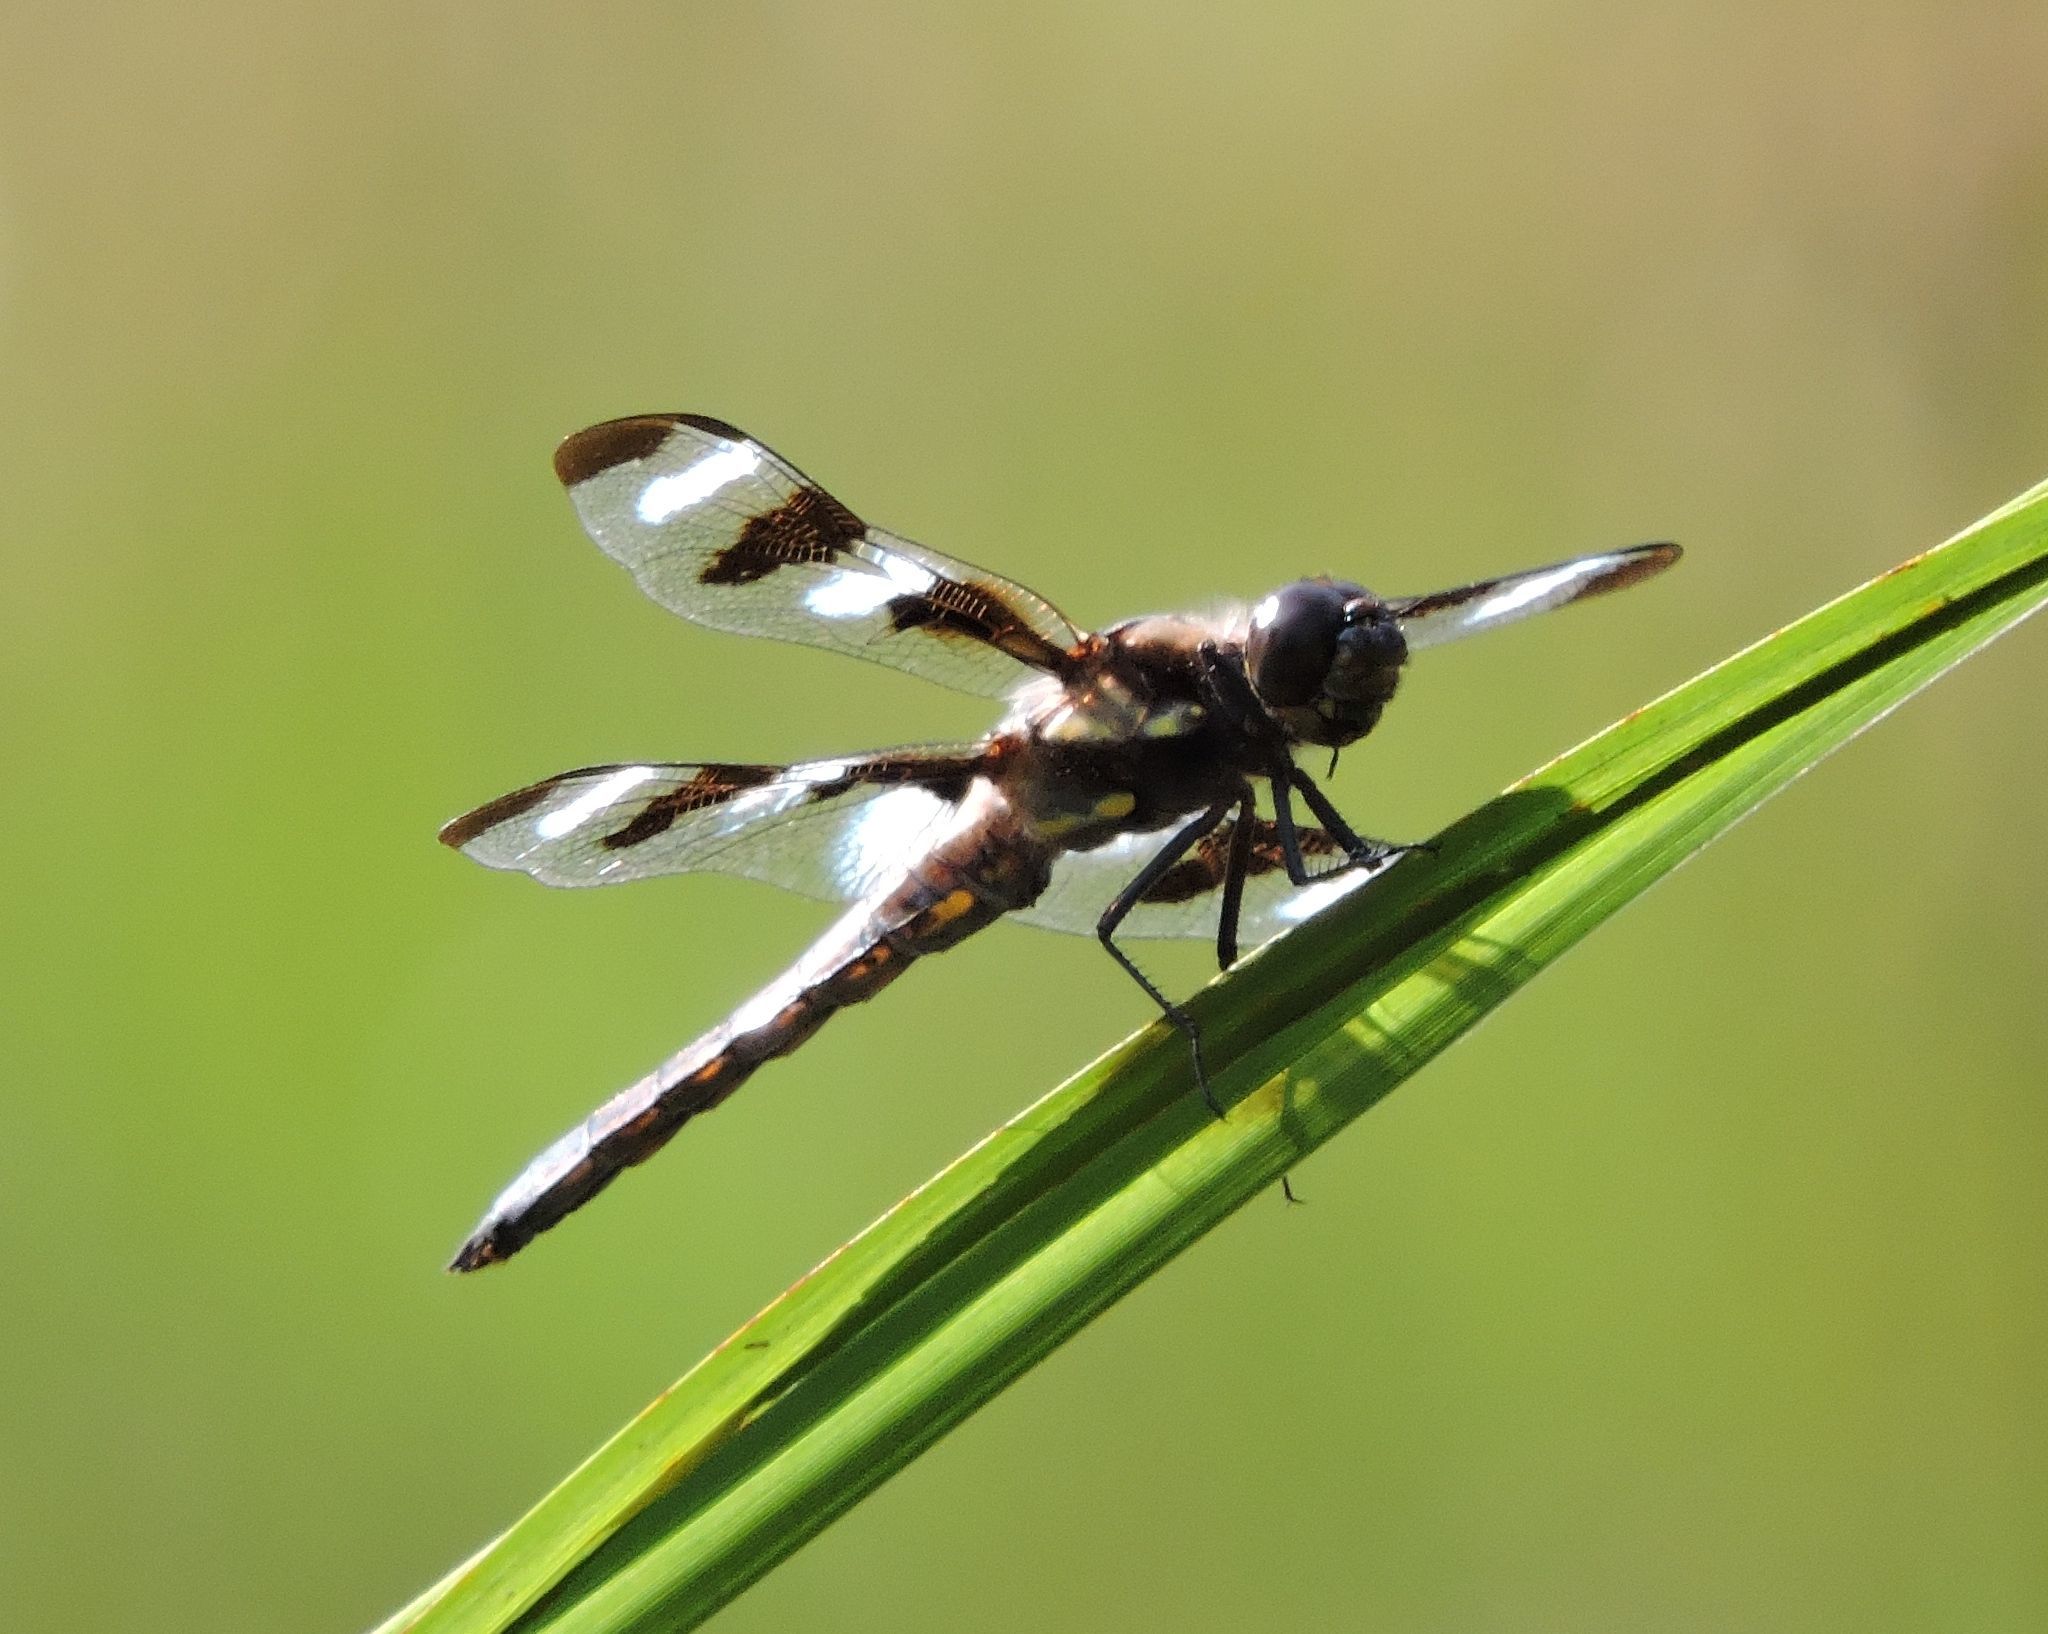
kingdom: Animalia
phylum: Arthropoda
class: Insecta
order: Odonata
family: Libellulidae
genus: Libellula
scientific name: Libellula pulchella
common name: Twelve-spotted skimmer
